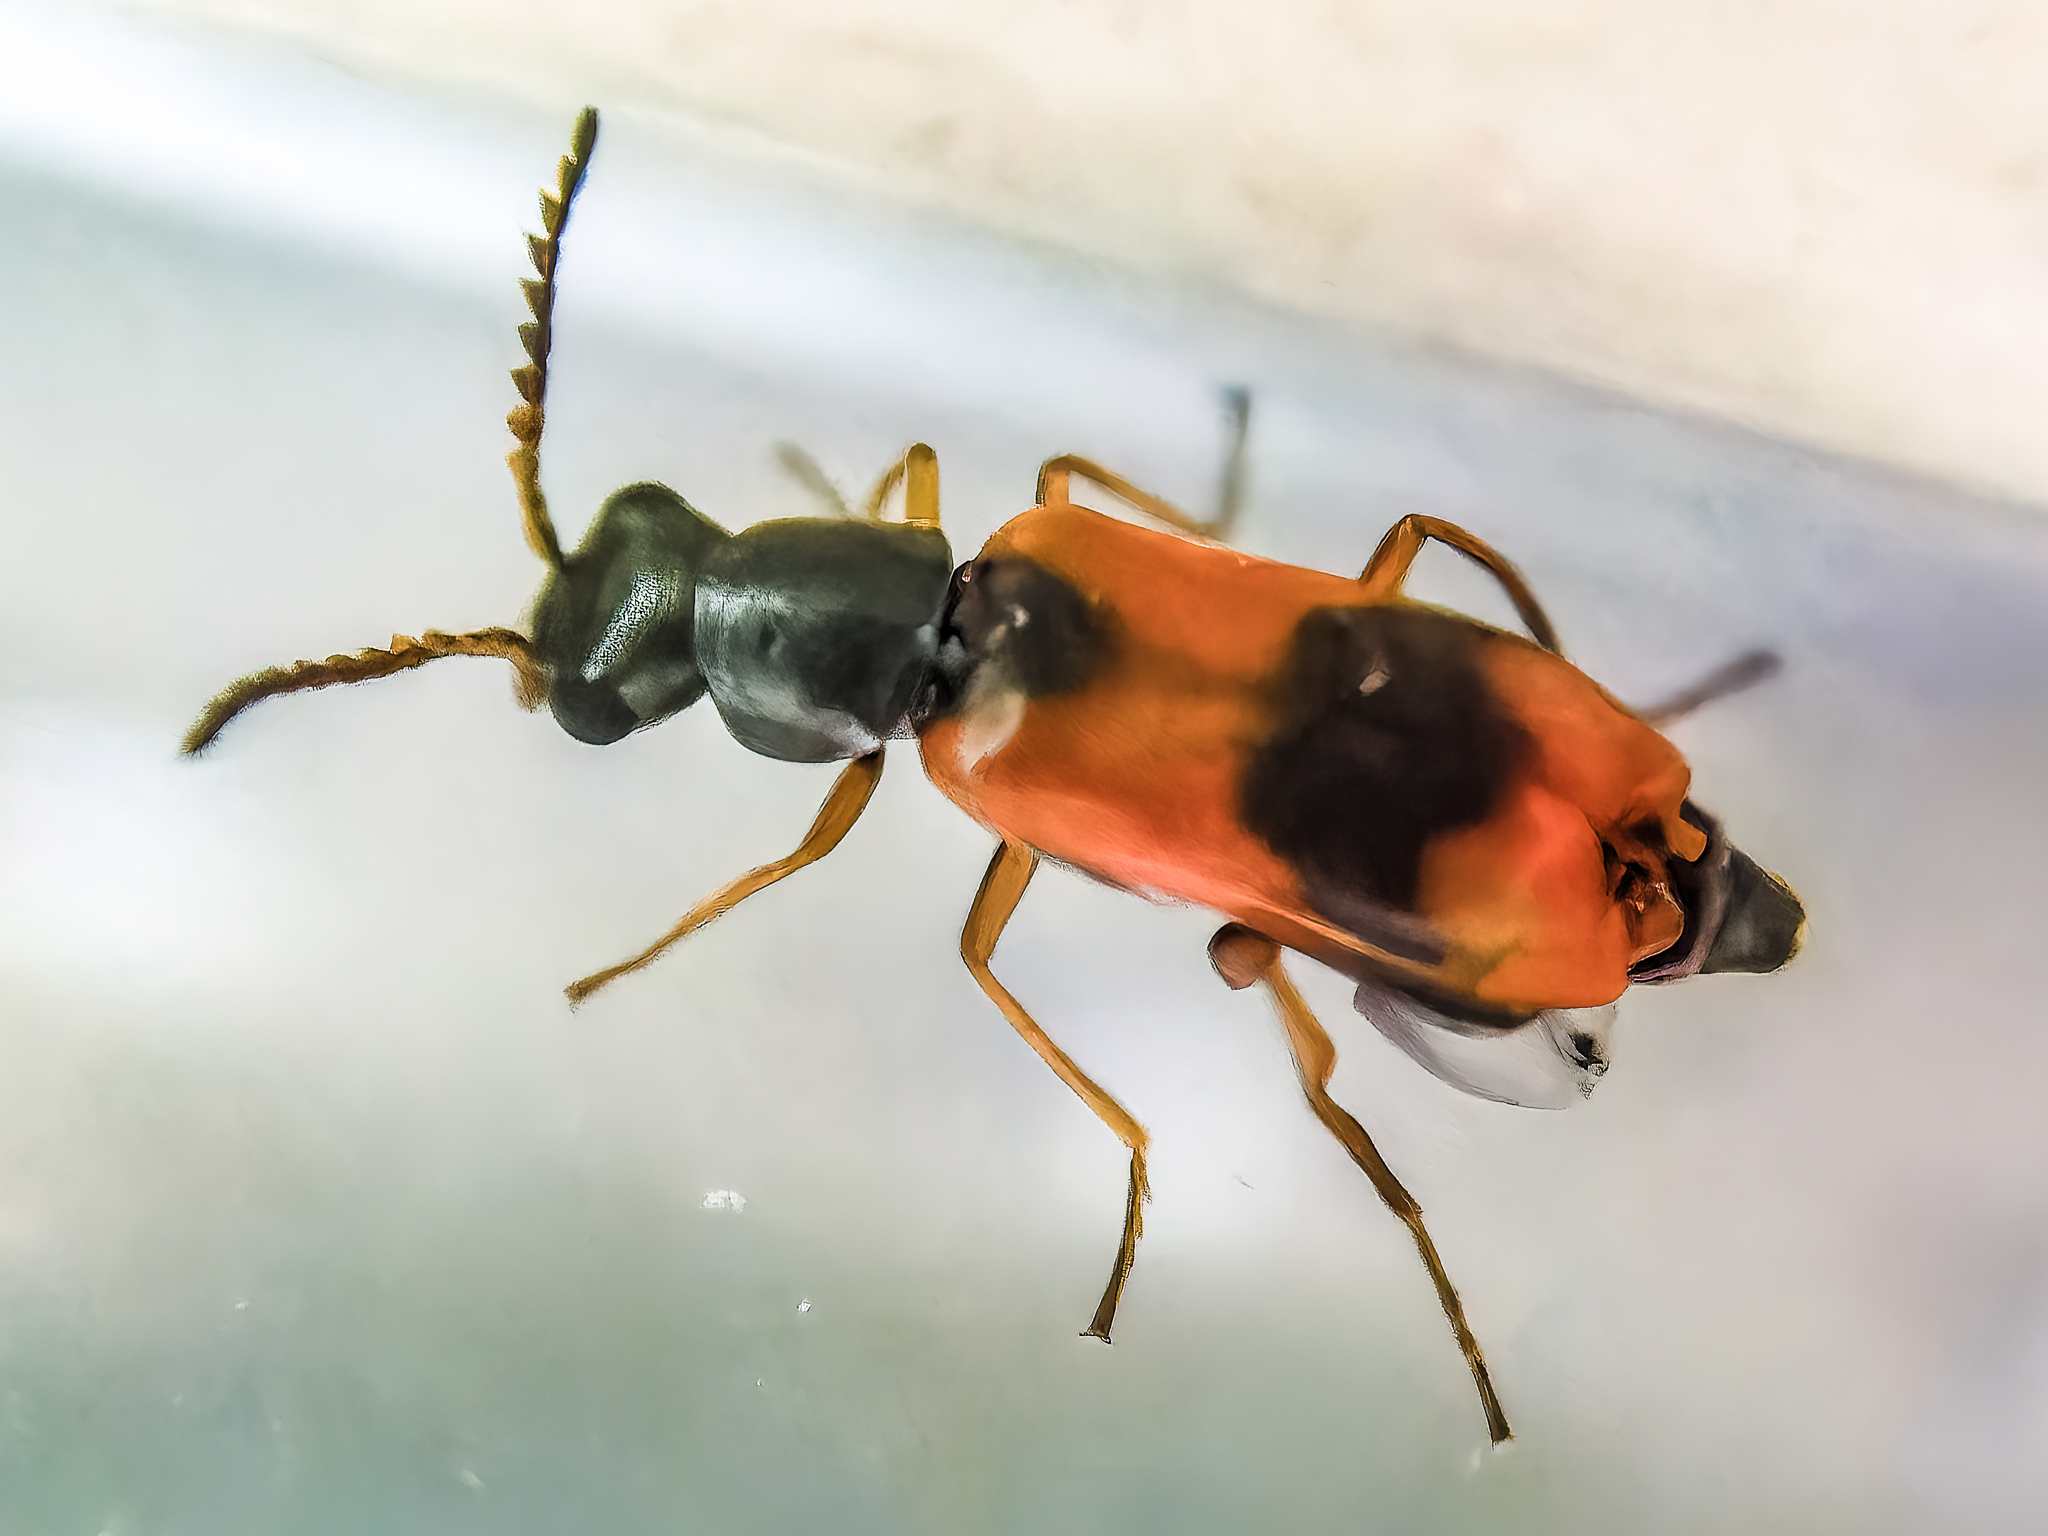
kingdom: Animalia
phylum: Arthropoda
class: Insecta
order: Coleoptera
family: Melyridae
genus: Anthocomus
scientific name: Anthocomus equestris
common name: Black-banded soft-winged flower beetle
